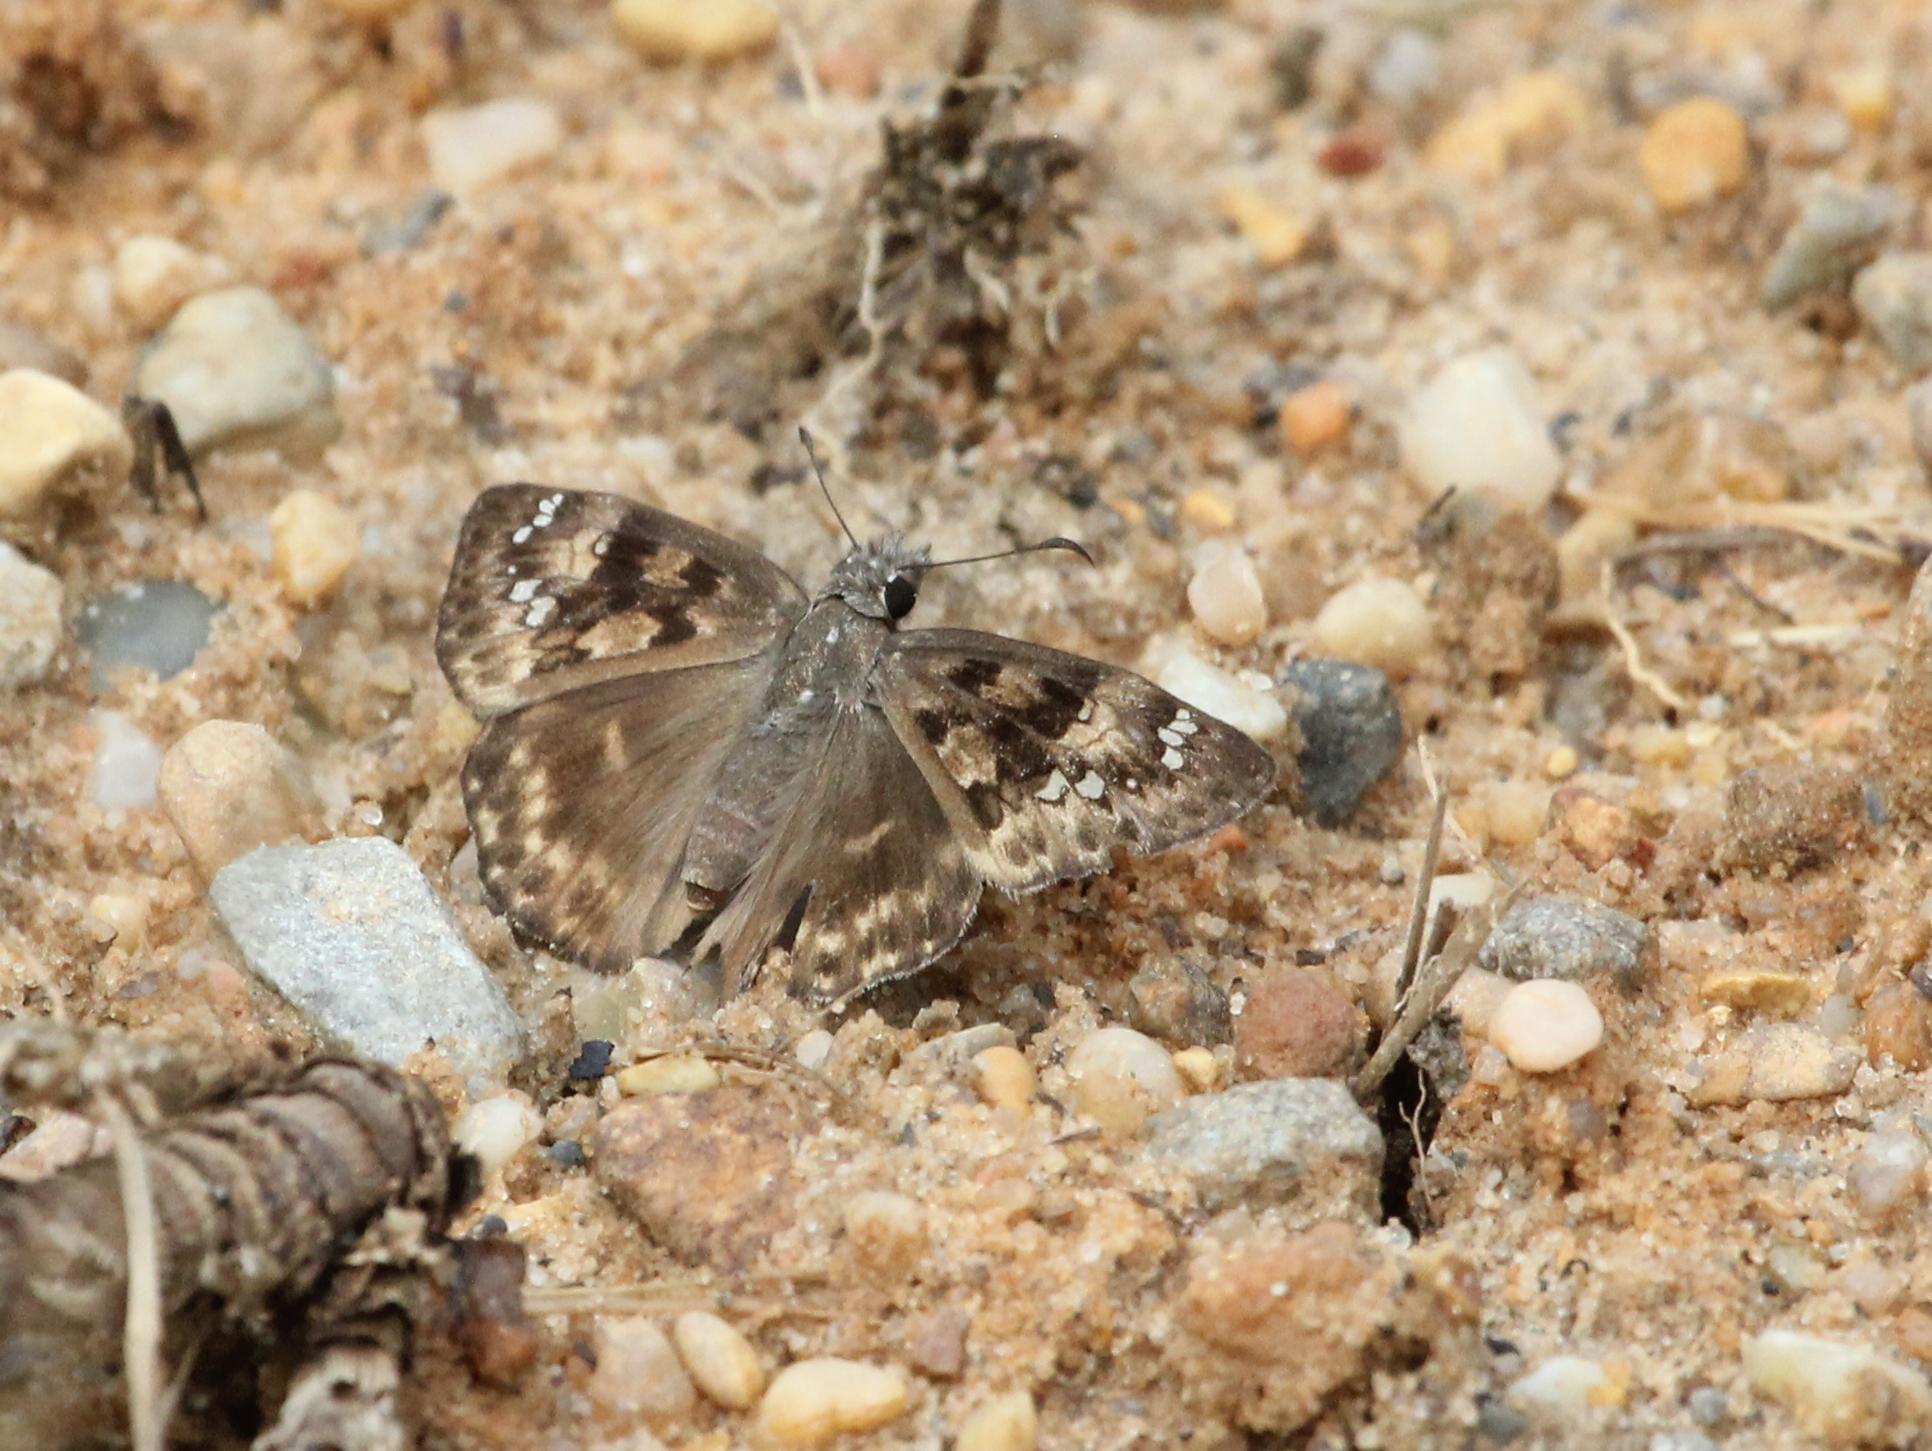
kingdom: Animalia
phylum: Arthropoda
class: Insecta
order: Lepidoptera
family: Hesperiidae
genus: Erynnis
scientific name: Erynnis horatius
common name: Horace's duskywing
